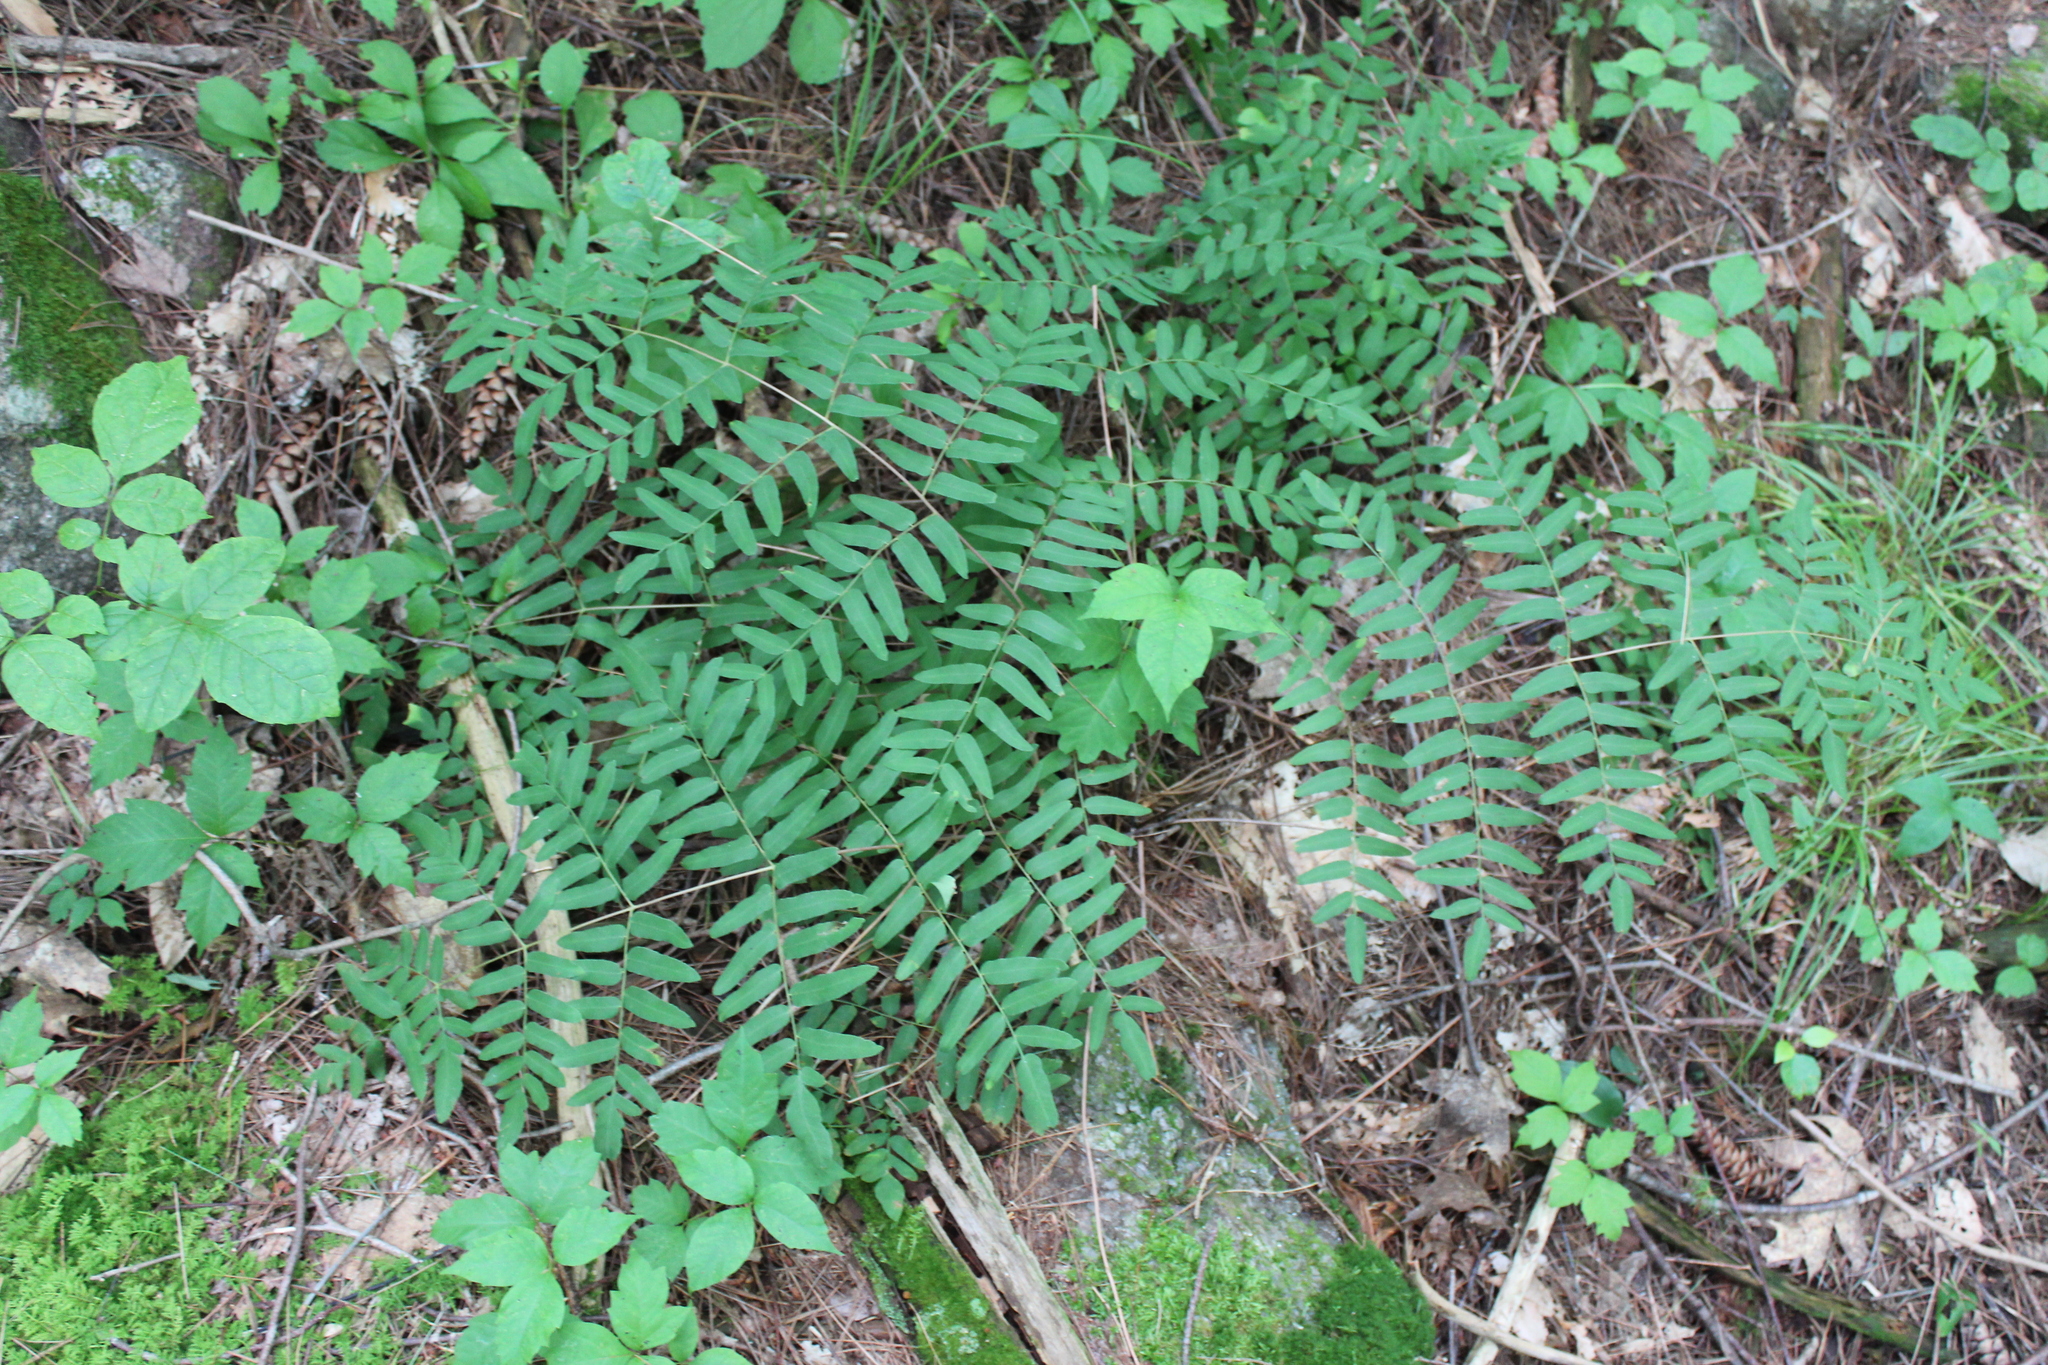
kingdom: Plantae
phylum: Tracheophyta
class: Polypodiopsida
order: Osmundales
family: Osmundaceae
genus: Osmunda
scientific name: Osmunda spectabilis
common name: American royal fern
